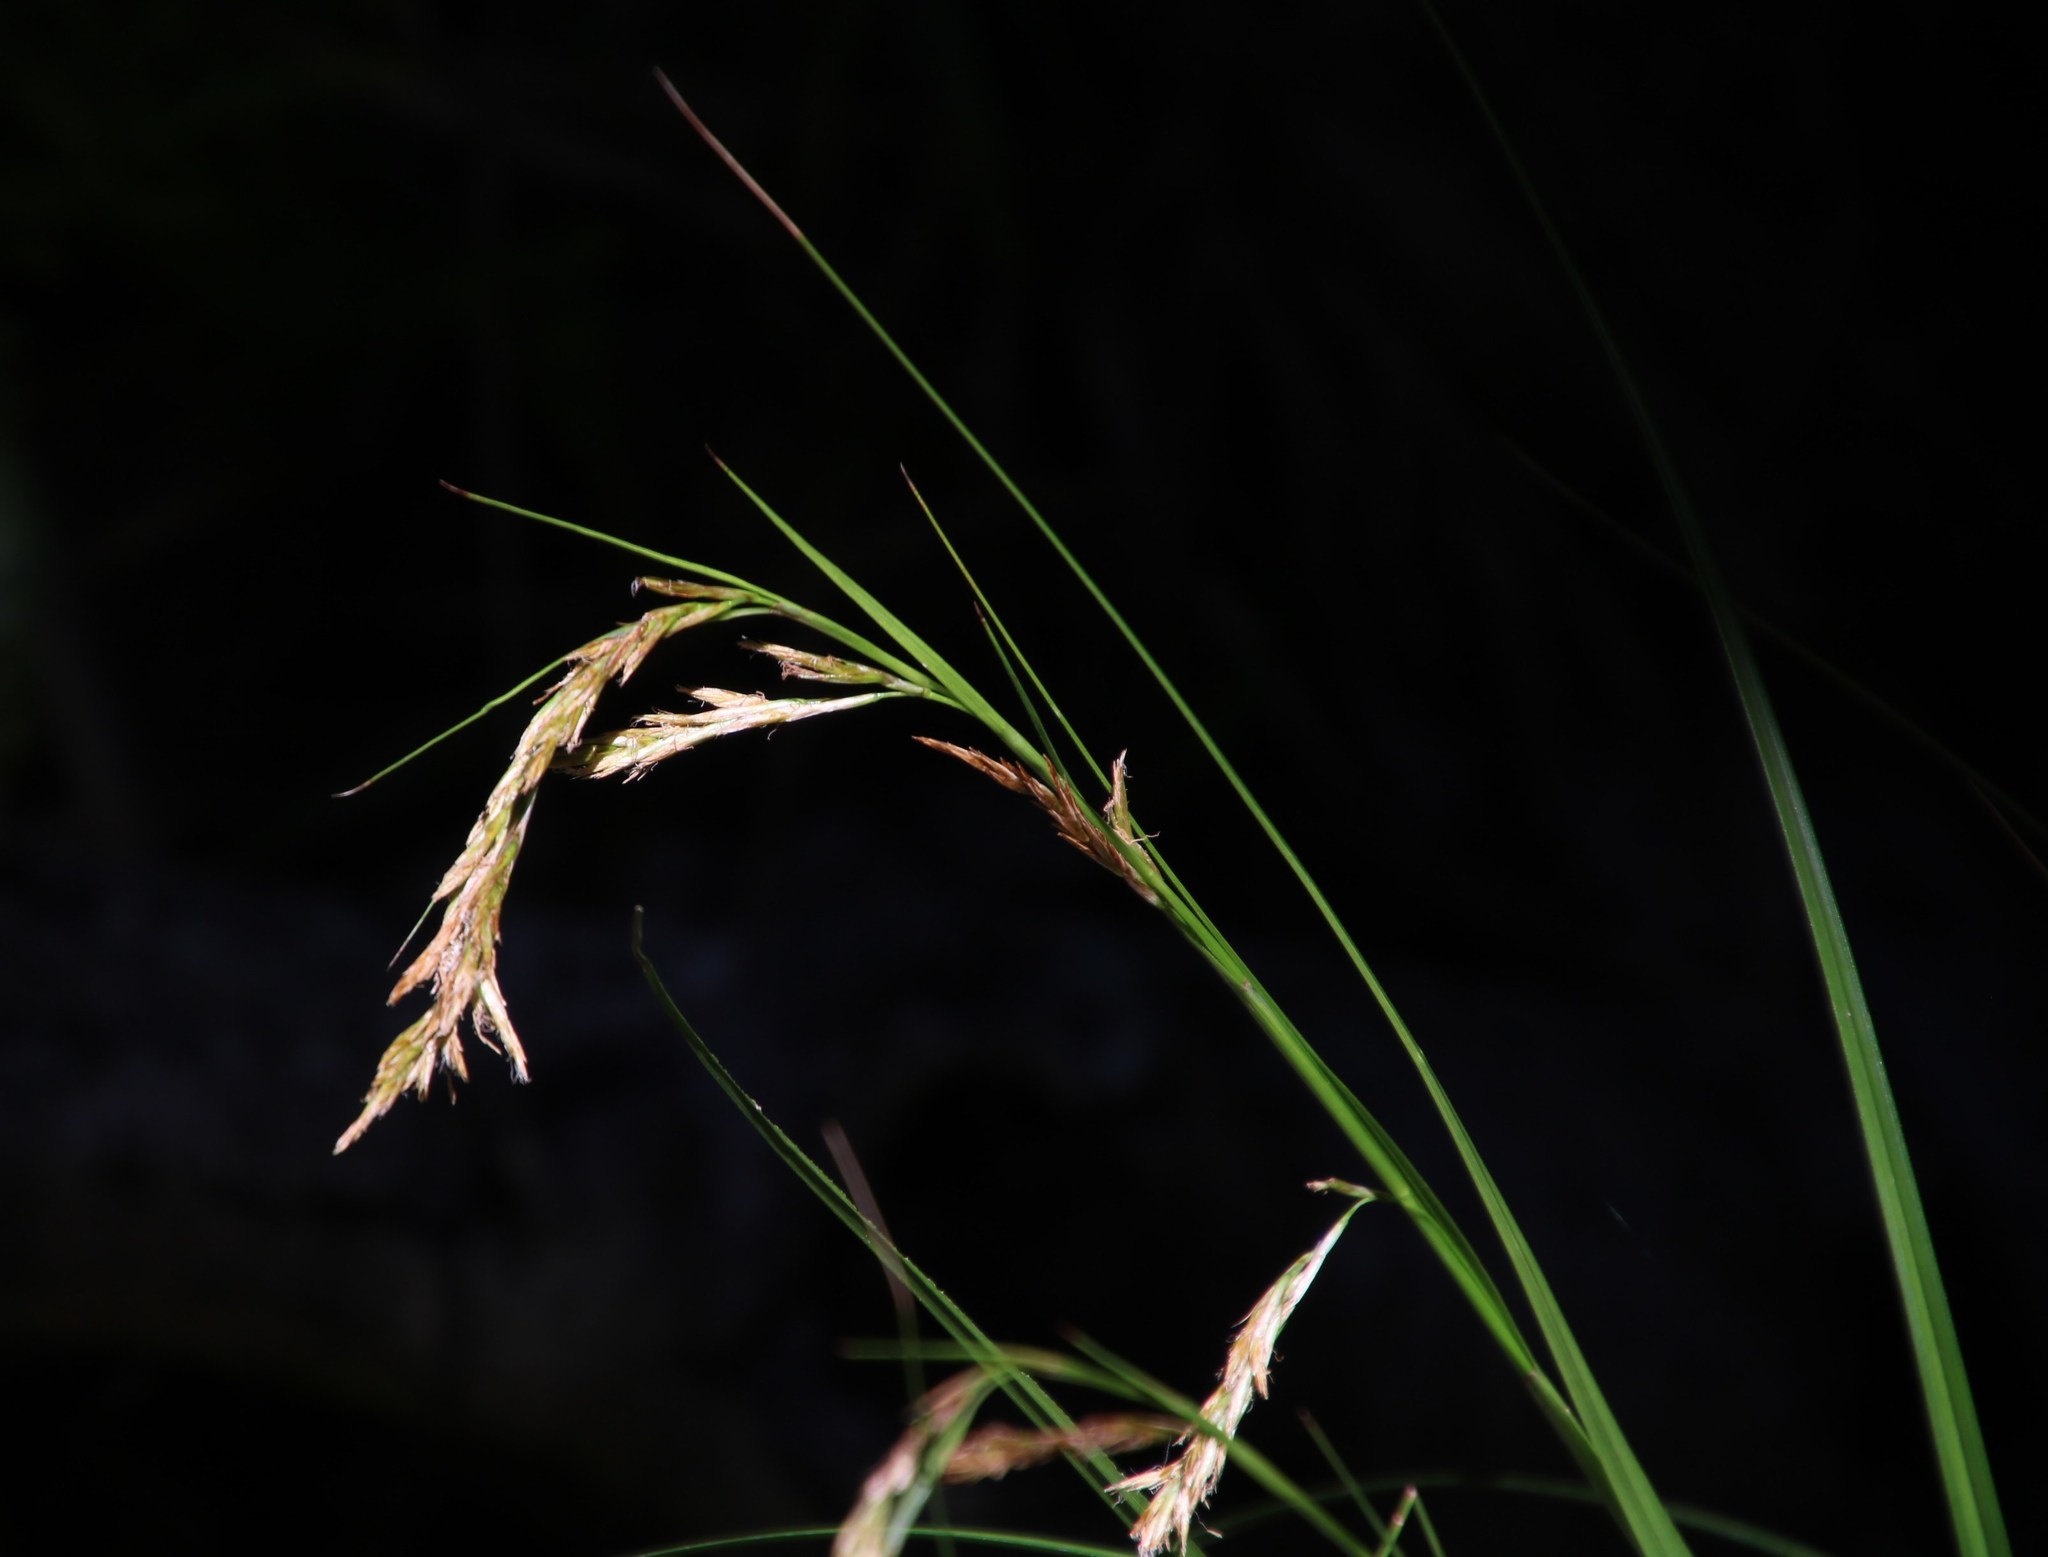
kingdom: Plantae
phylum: Tracheophyta
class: Liliopsida
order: Poales
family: Cyperaceae
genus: Carex
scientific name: Carex lancea
